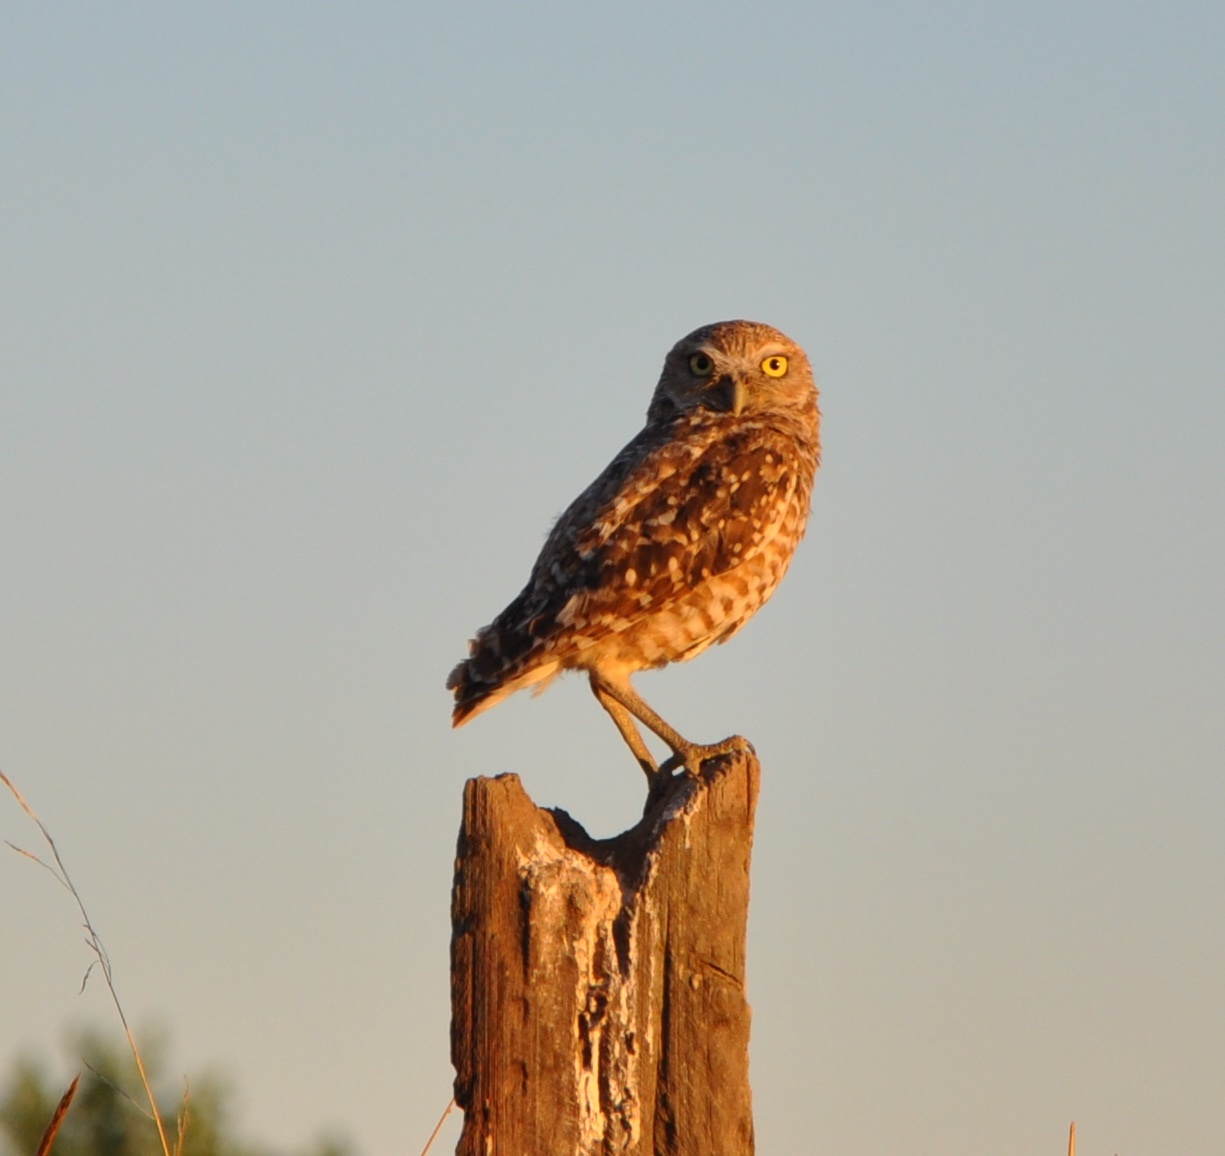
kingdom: Animalia
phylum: Chordata
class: Aves
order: Strigiformes
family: Strigidae
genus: Athene
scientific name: Athene cunicularia
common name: Burrowing owl
